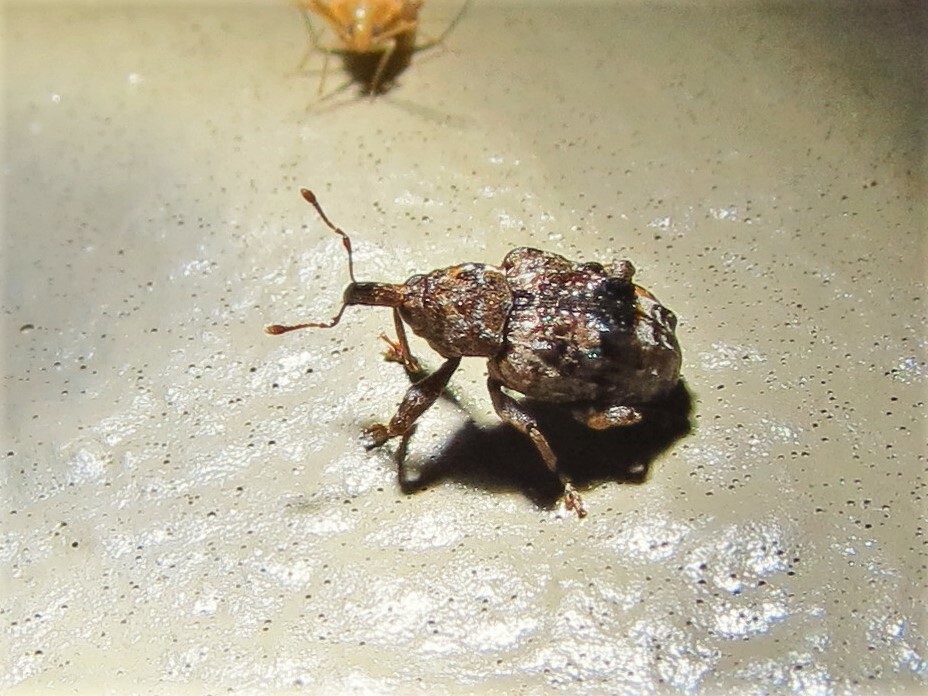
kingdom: Animalia
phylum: Arthropoda
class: Insecta
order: Coleoptera
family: Curculionidae
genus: Conotrachelus
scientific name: Conotrachelus nenuphar
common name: Plum curculio
